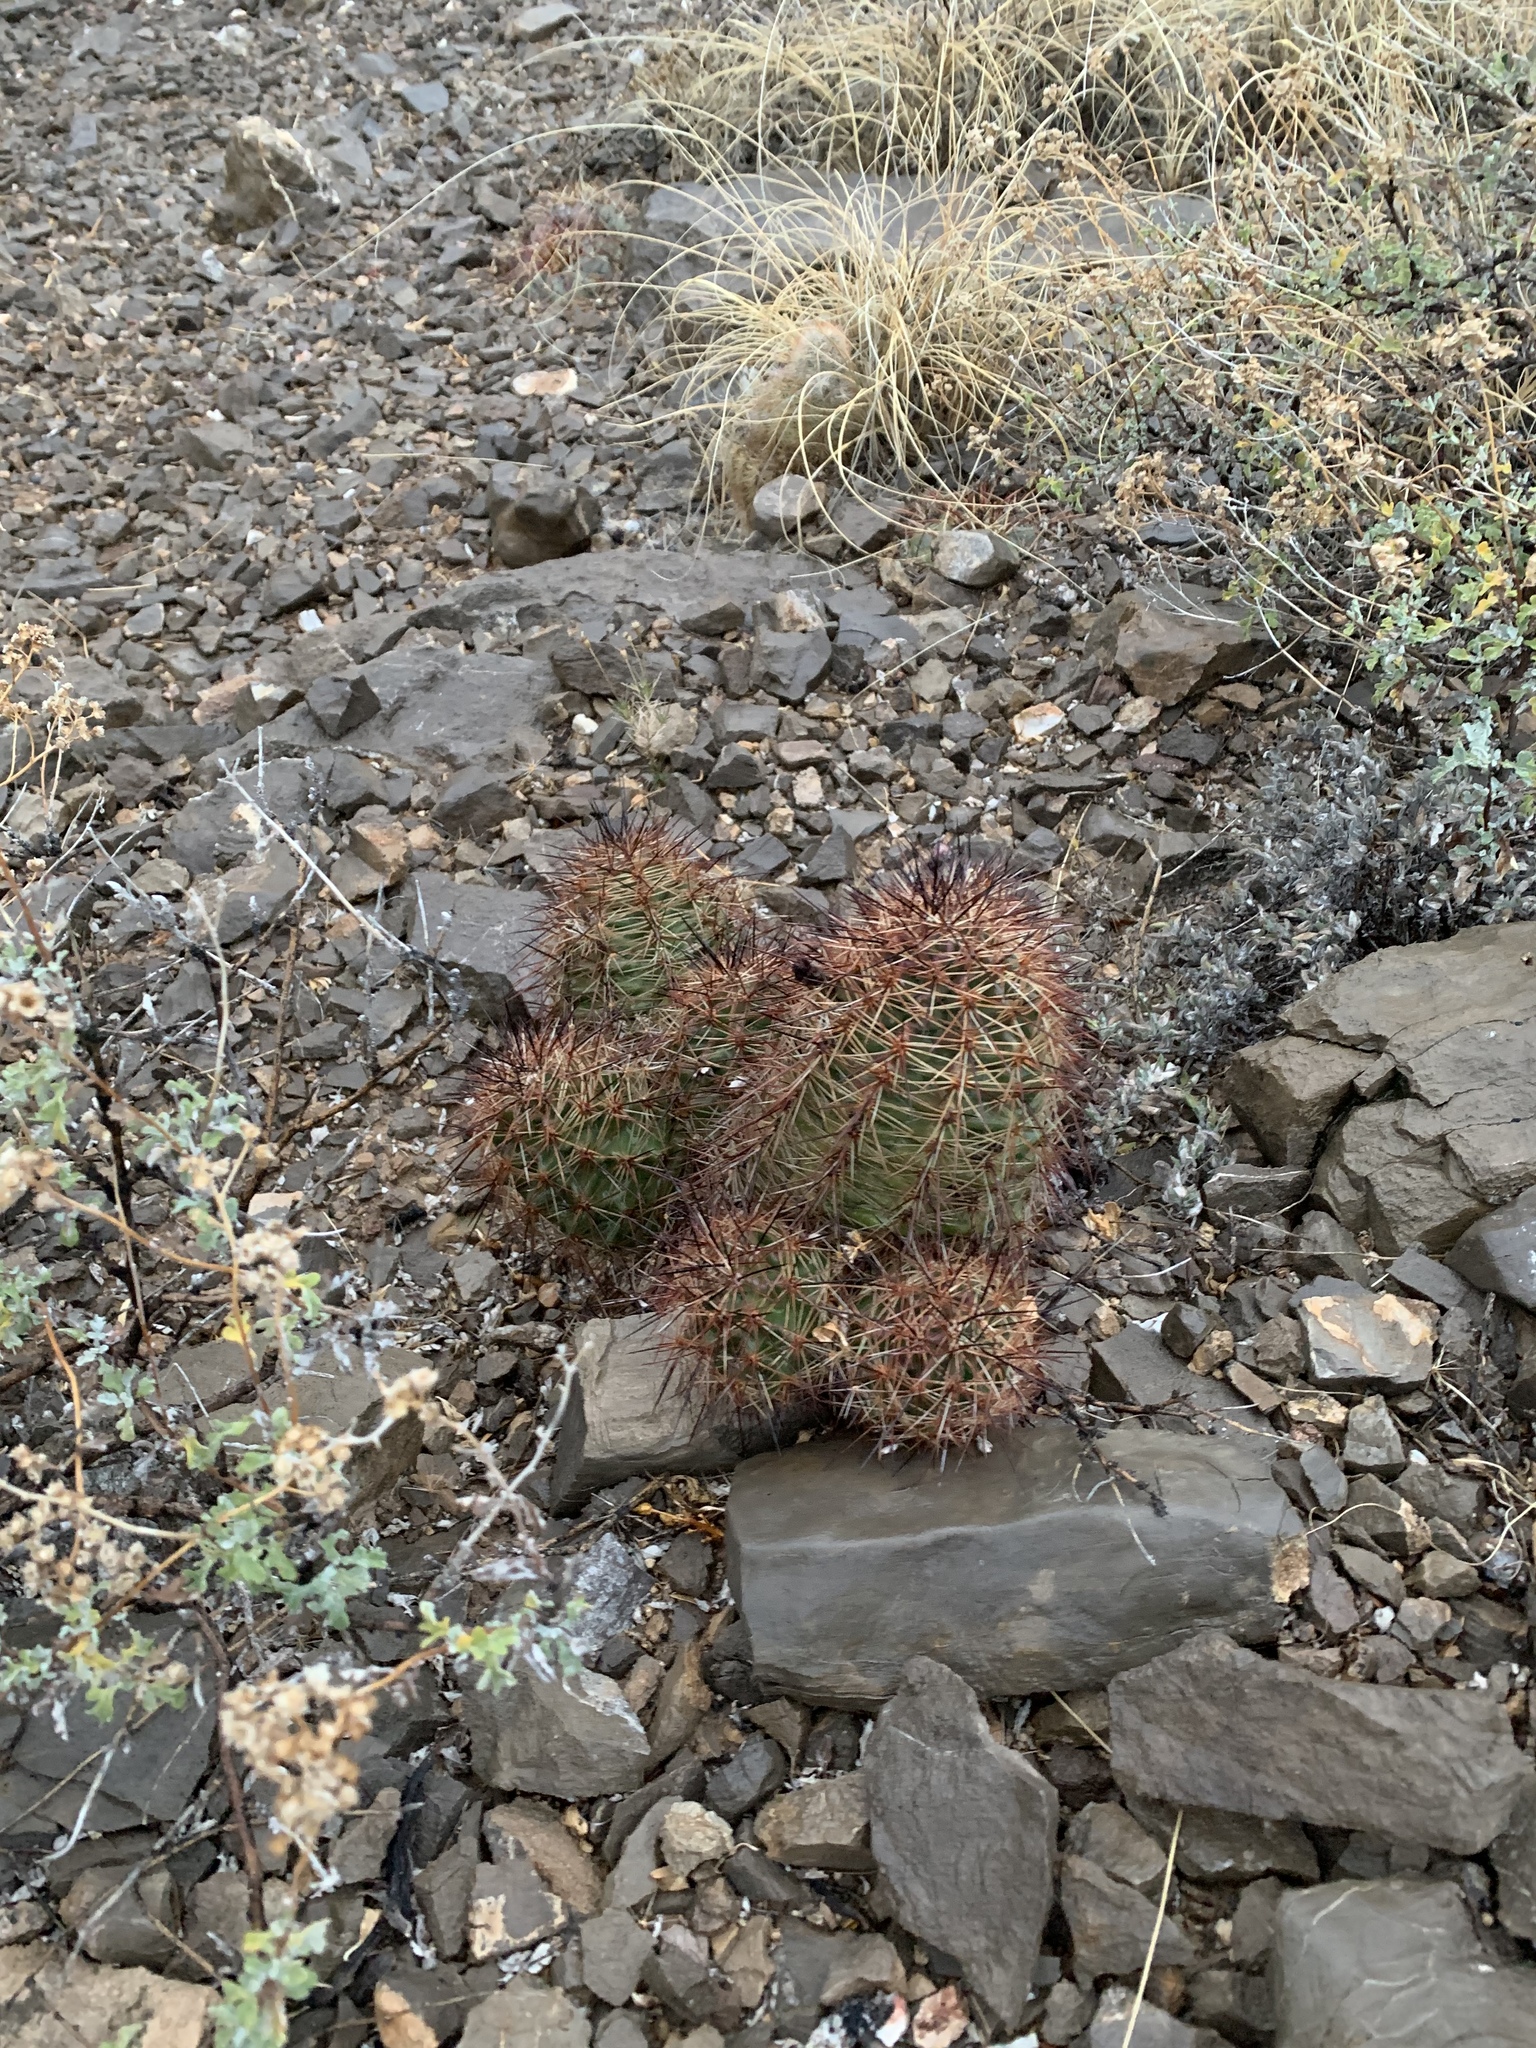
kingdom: Plantae
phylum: Tracheophyta
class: Magnoliopsida
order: Caryophyllales
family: Cactaceae
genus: Echinocereus
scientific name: Echinocereus coccineus
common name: Scarlet hedgehog cactus
